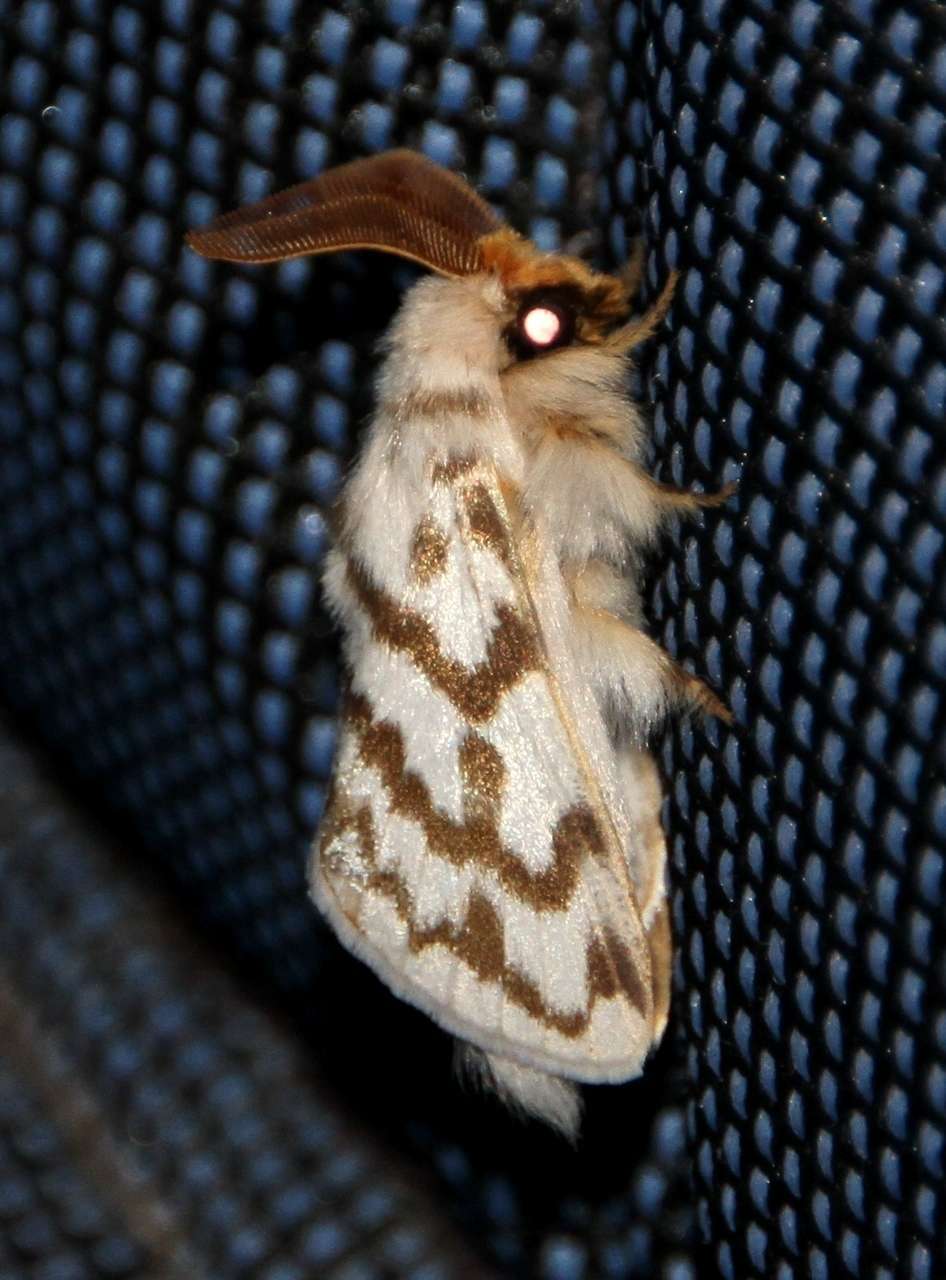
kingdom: Animalia
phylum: Arthropoda
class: Insecta
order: Lepidoptera
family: Lasiocampidae
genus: Pernattia
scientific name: Pernattia chlorophragma
